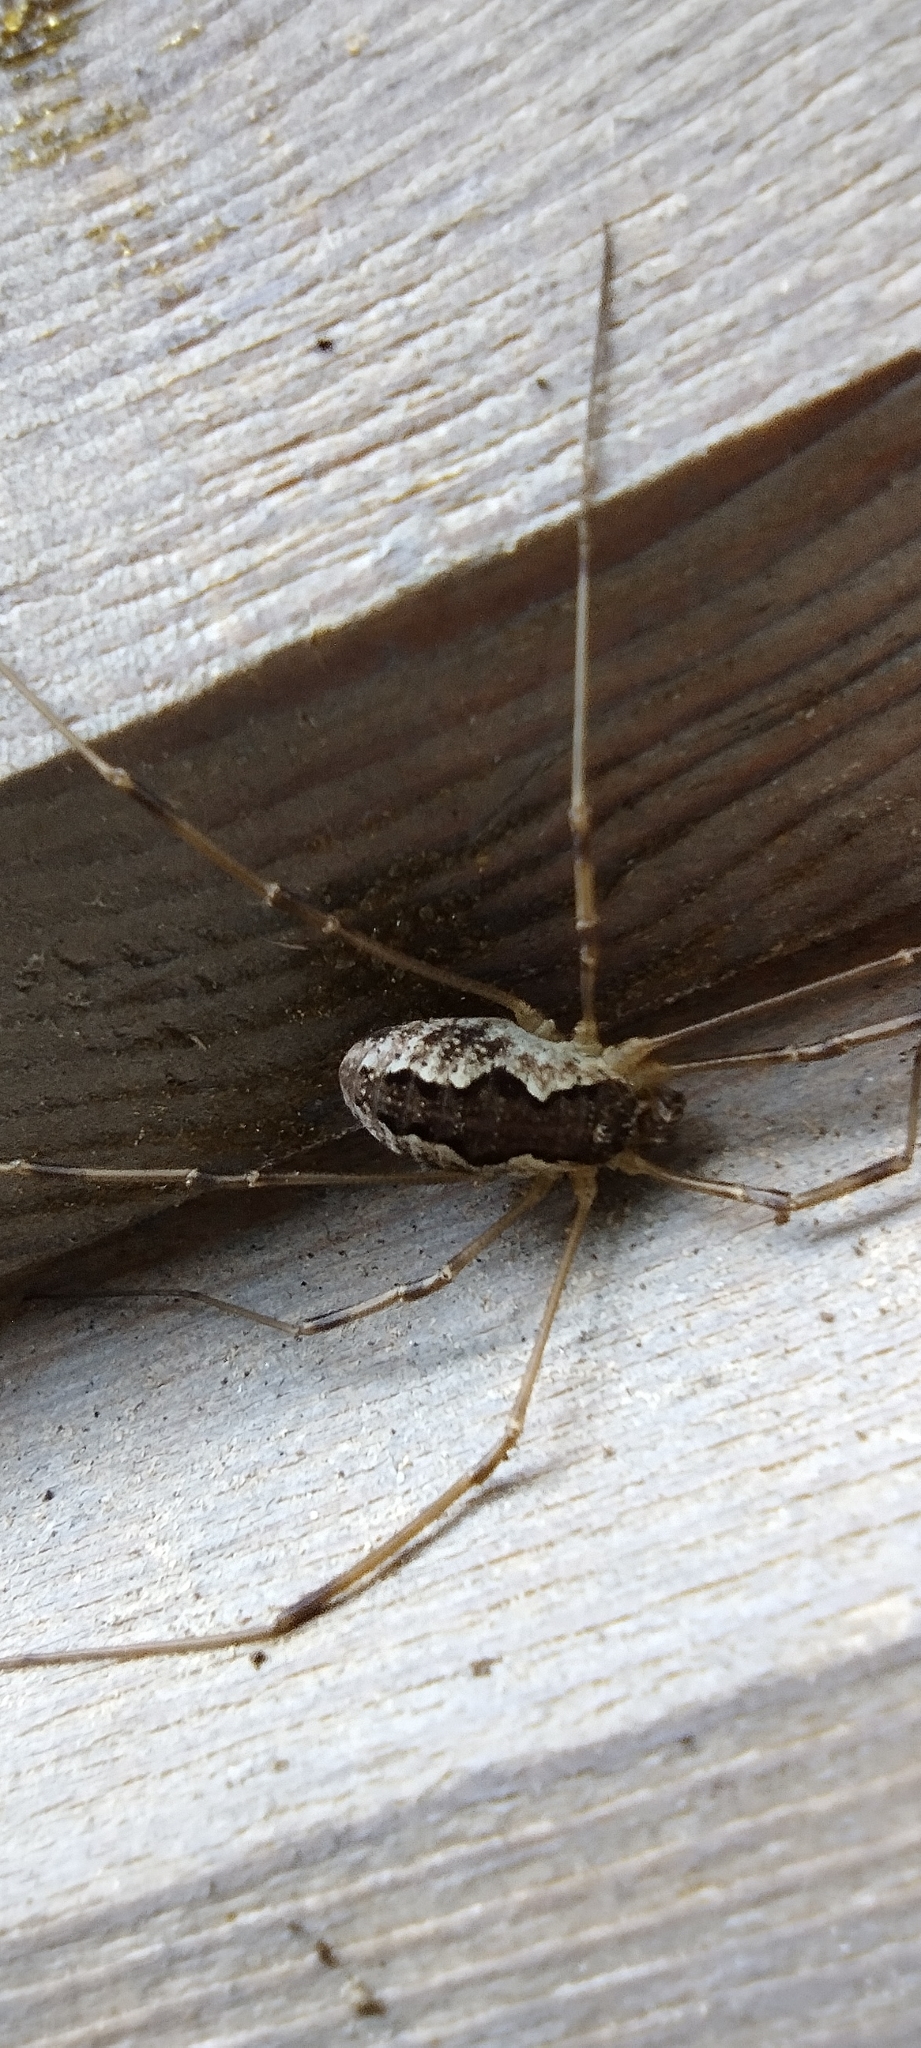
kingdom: Animalia
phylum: Arthropoda
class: Arachnida
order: Opiliones
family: Phalangiidae
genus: Mitopus
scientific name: Mitopus morio
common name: Saddleback harvestman
